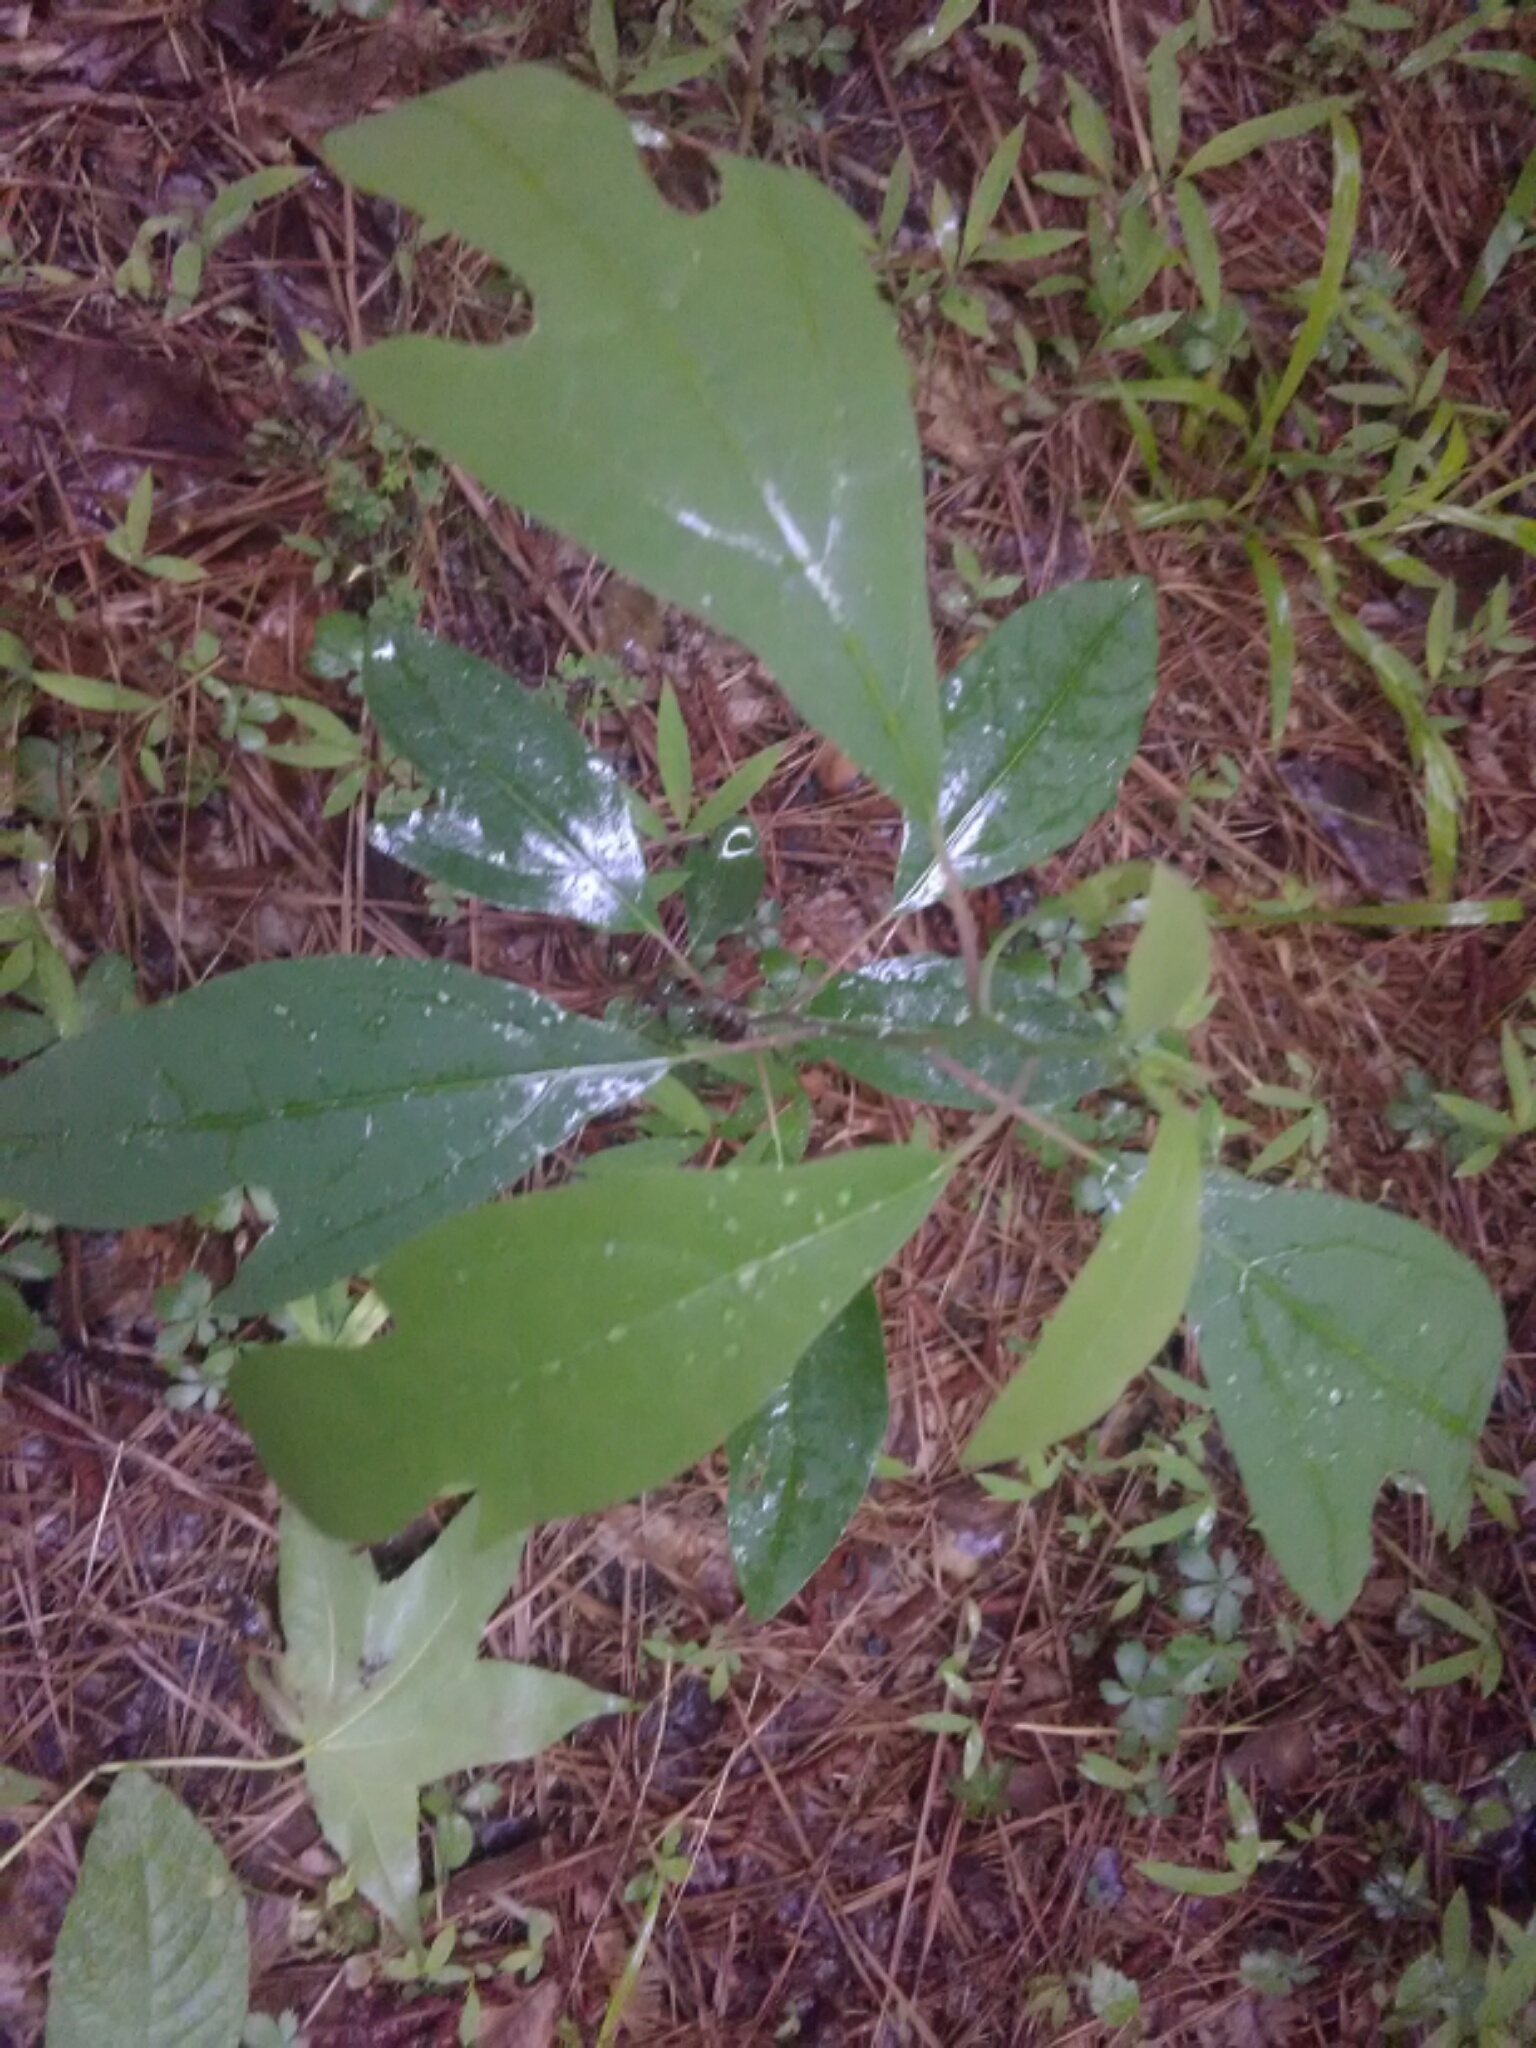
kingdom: Plantae
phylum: Tracheophyta
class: Magnoliopsida
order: Laurales
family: Lauraceae
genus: Sassafras
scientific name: Sassafras albidum
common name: Sassafras
